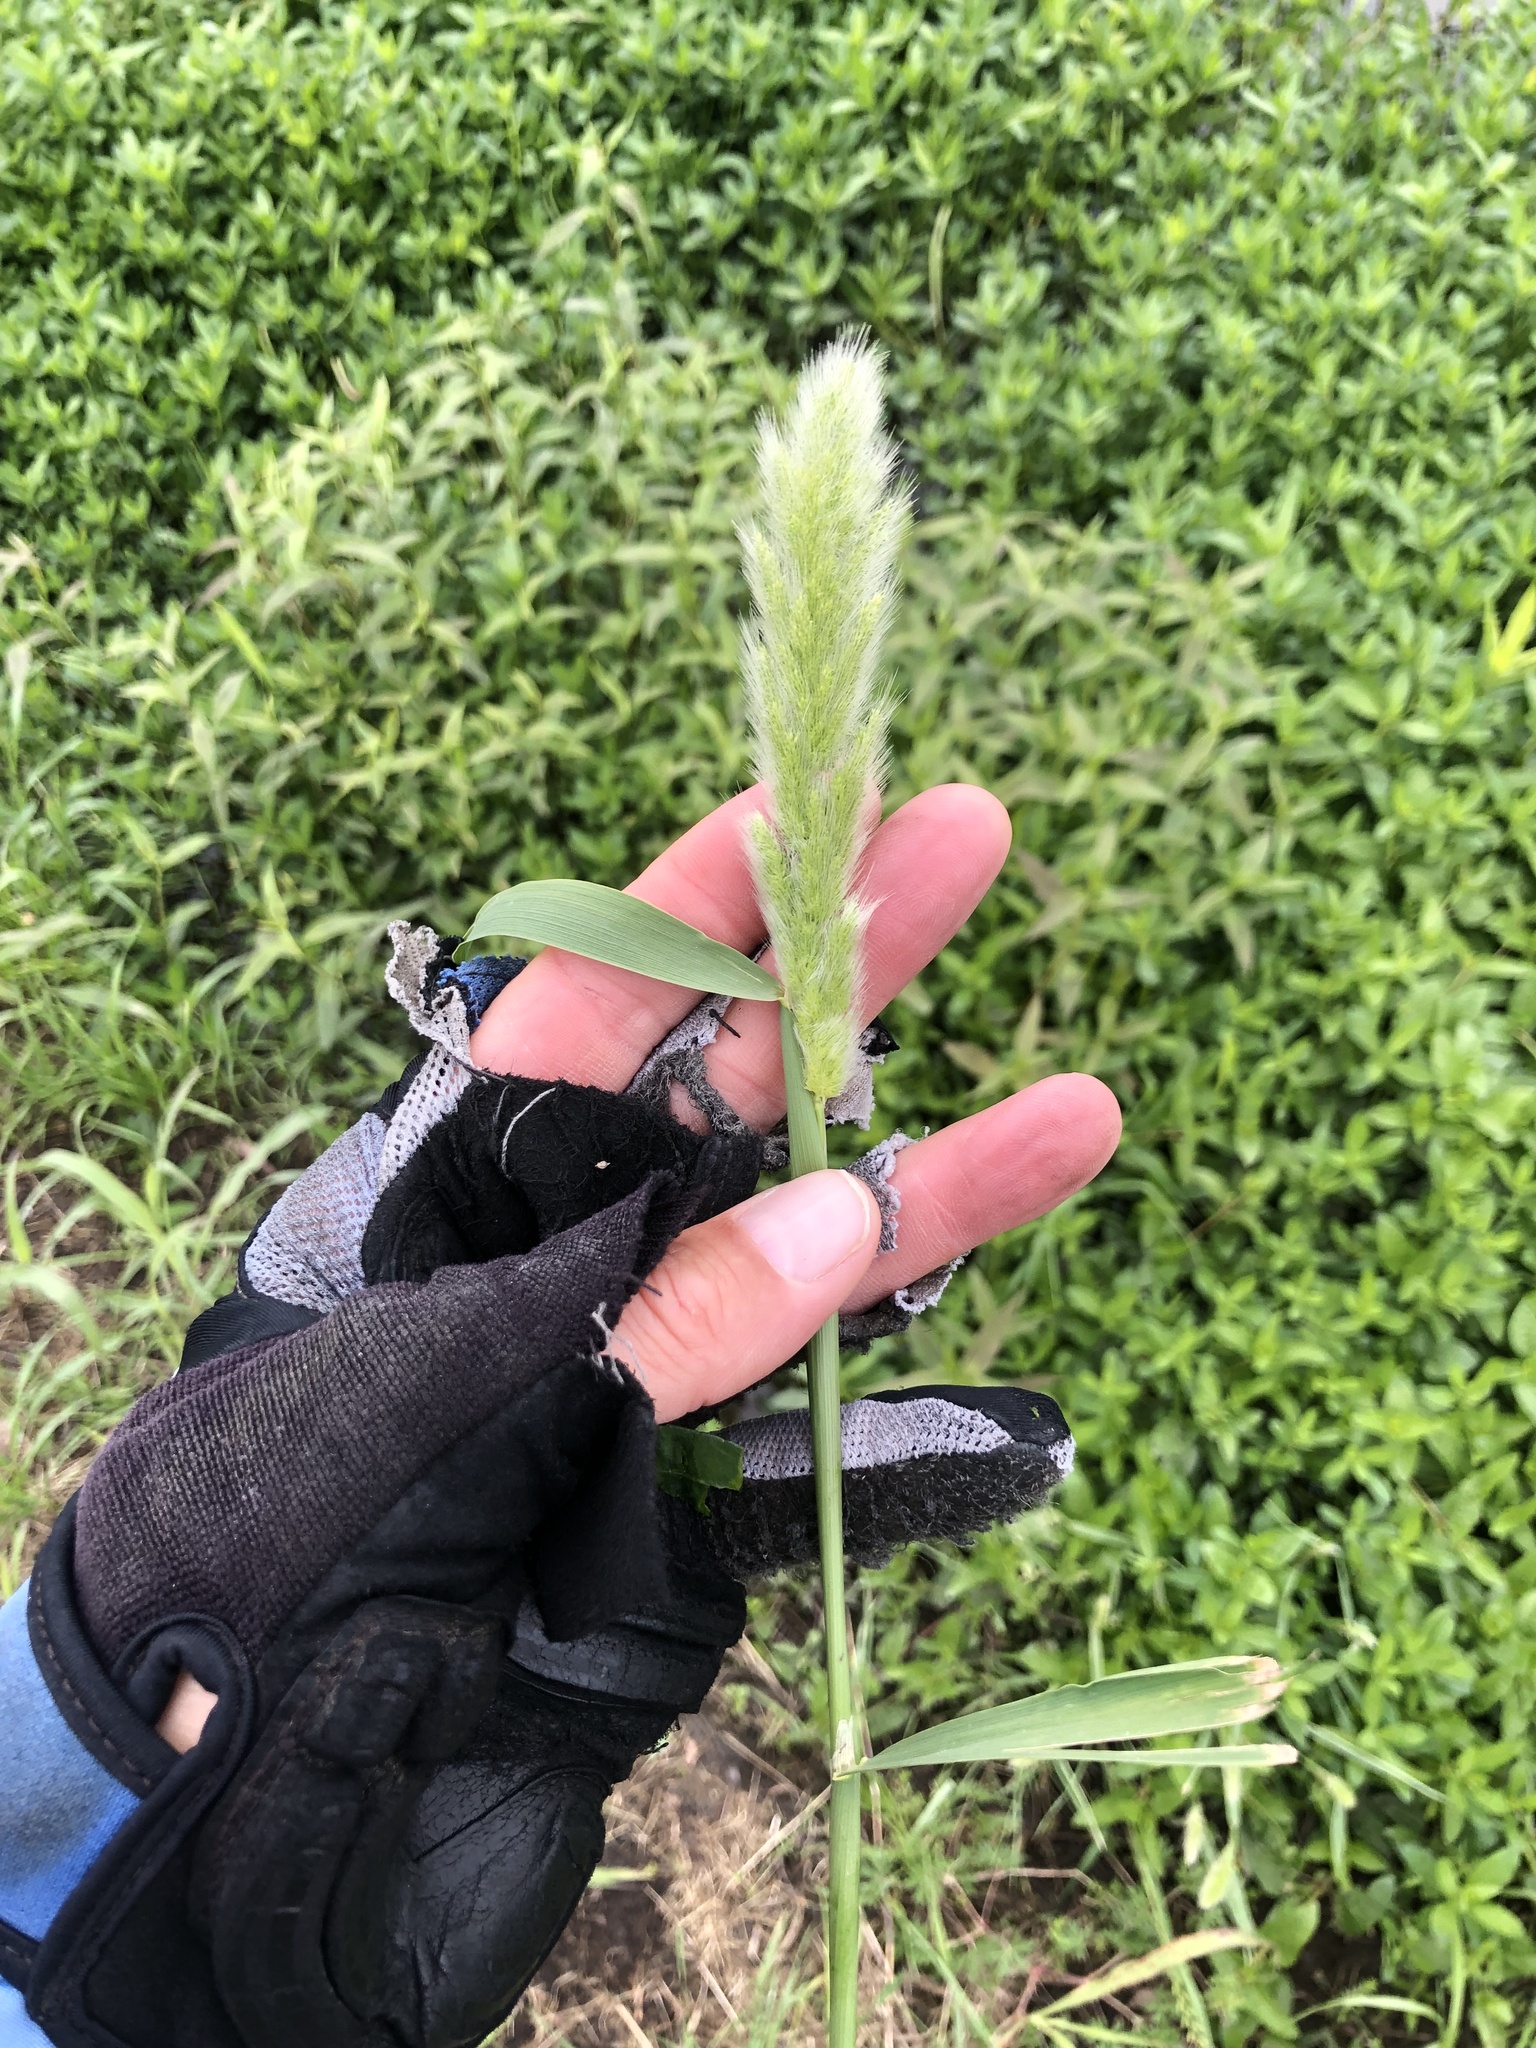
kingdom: Plantae
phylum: Tracheophyta
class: Liliopsida
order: Poales
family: Poaceae
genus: Polypogon
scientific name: Polypogon monspeliensis
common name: Annual rabbitsfoot grass
